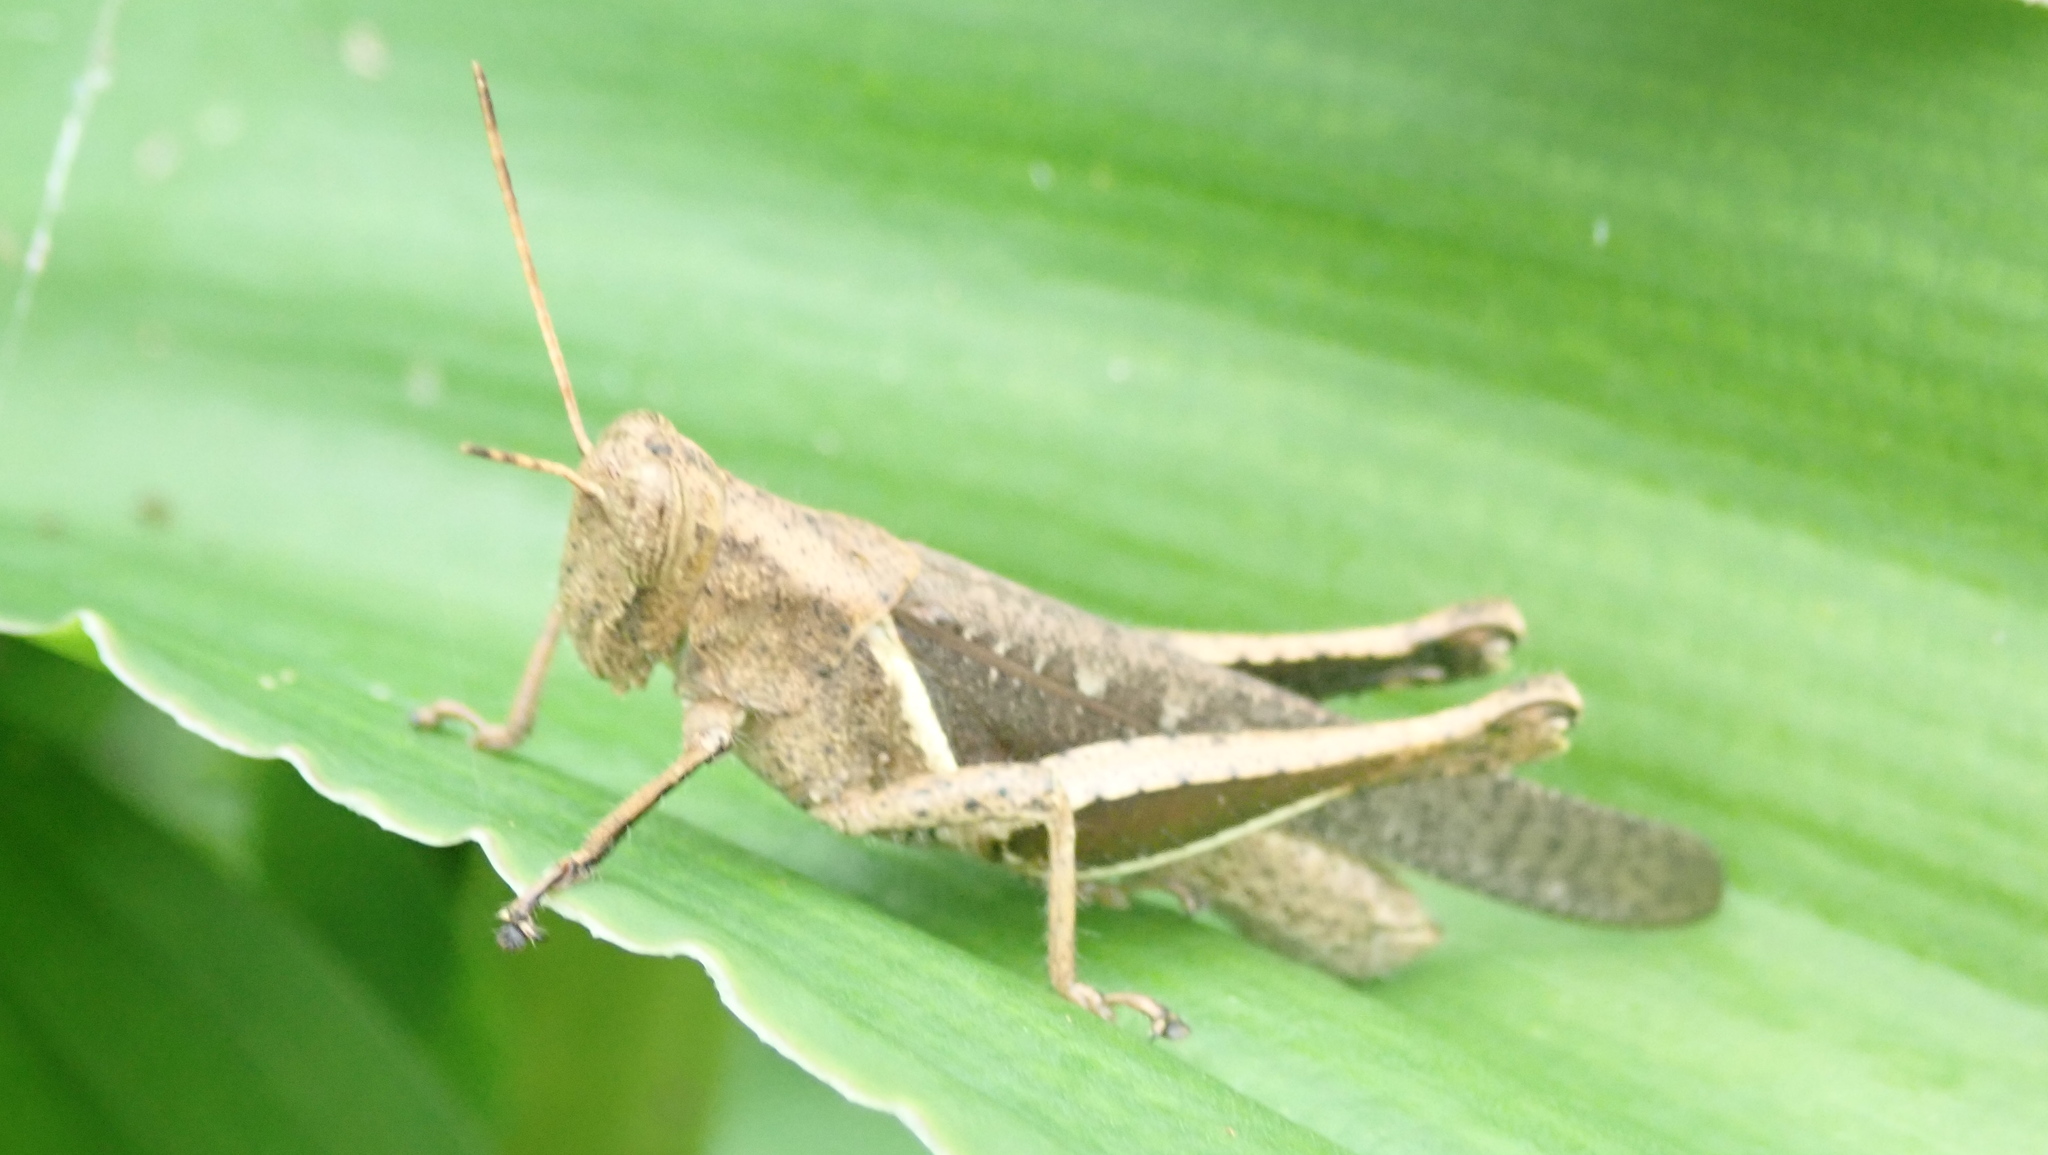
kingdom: Animalia
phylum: Arthropoda
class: Insecta
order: Orthoptera
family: Acrididae
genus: Abracris
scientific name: Abracris flavolineata
